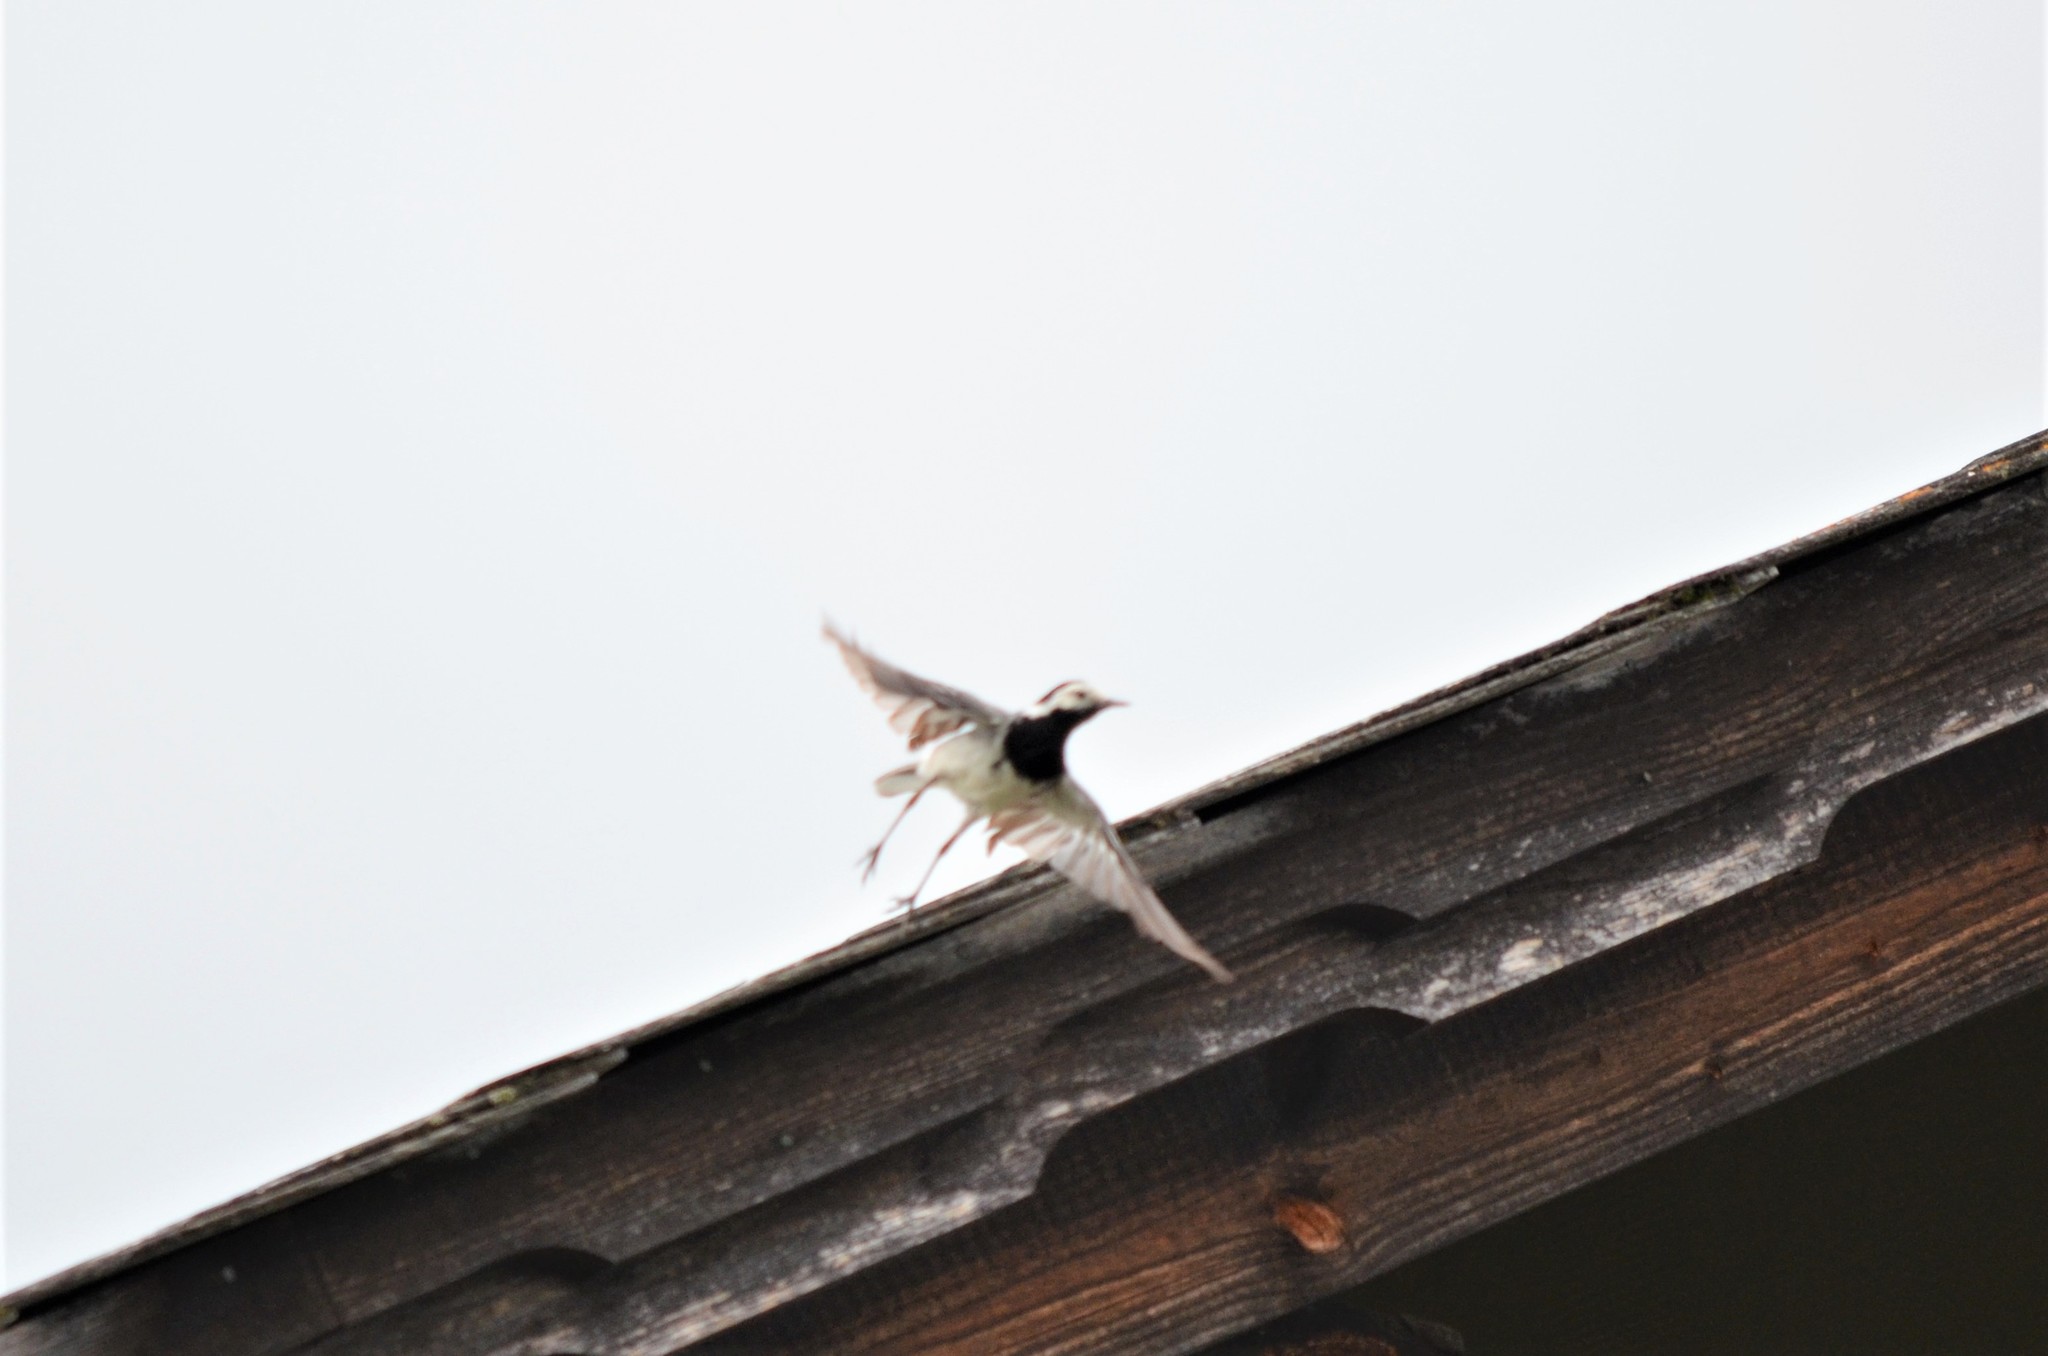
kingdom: Animalia
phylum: Chordata
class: Aves
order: Passeriformes
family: Motacillidae
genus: Motacilla
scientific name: Motacilla alba
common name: White wagtail
